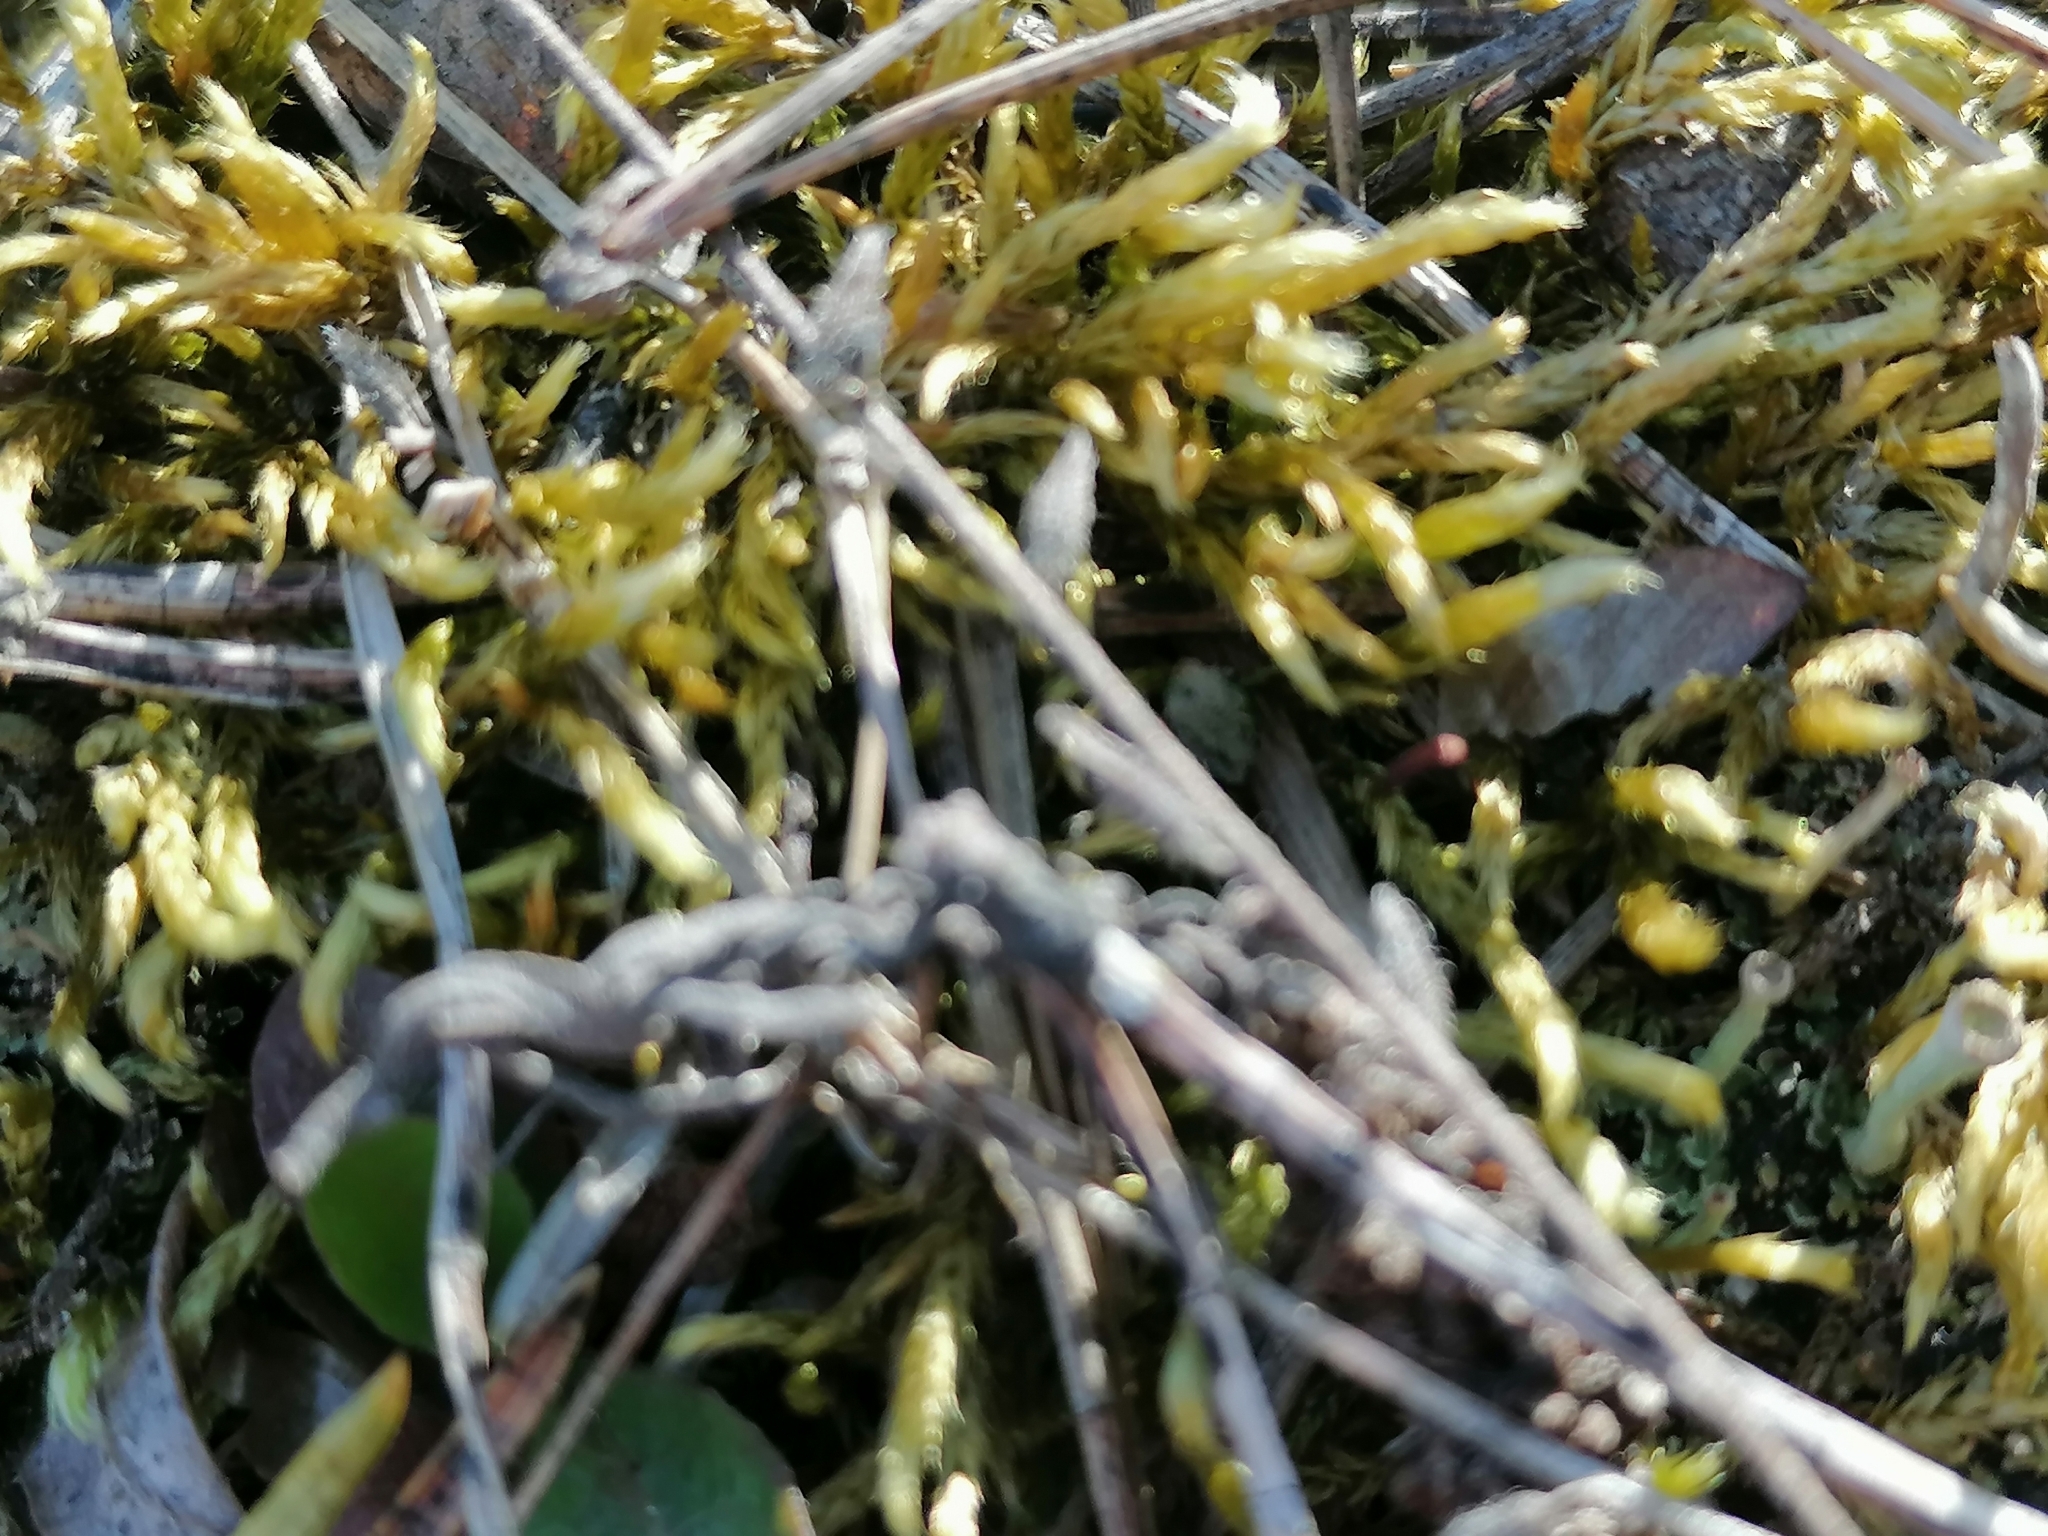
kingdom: Plantae
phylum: Bryophyta
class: Bryopsida
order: Hypnales
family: Brachytheciaceae
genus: Homalothecium
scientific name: Homalothecium lutescens
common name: Yellow feather-moss
